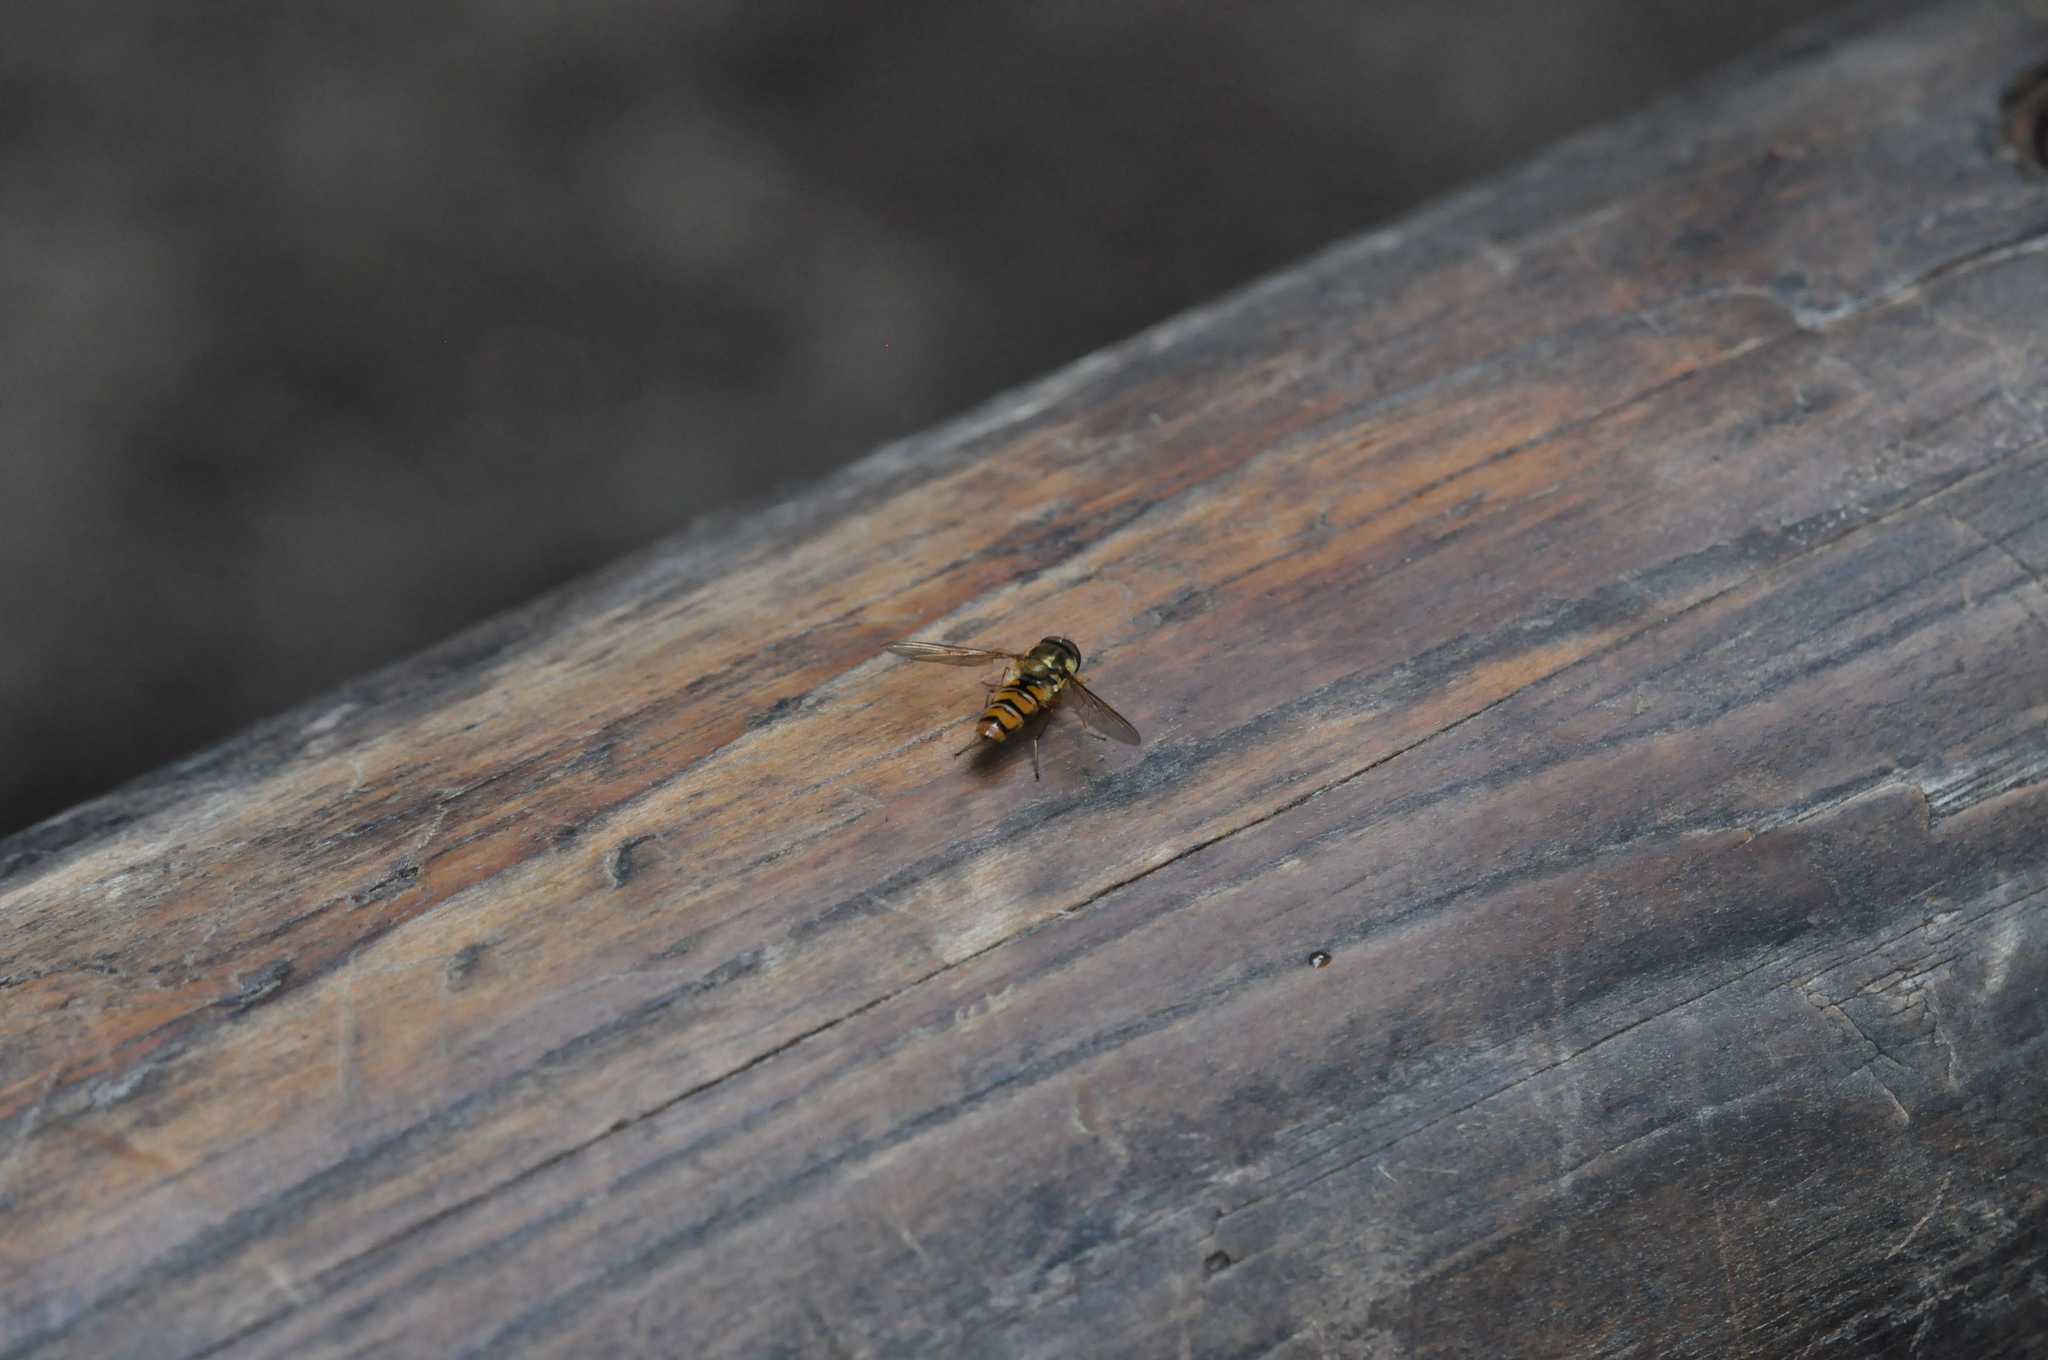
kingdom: Animalia
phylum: Arthropoda
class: Insecta
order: Diptera
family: Syrphidae
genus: Episyrphus
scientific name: Episyrphus balteatus
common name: Marmalade hoverfly
